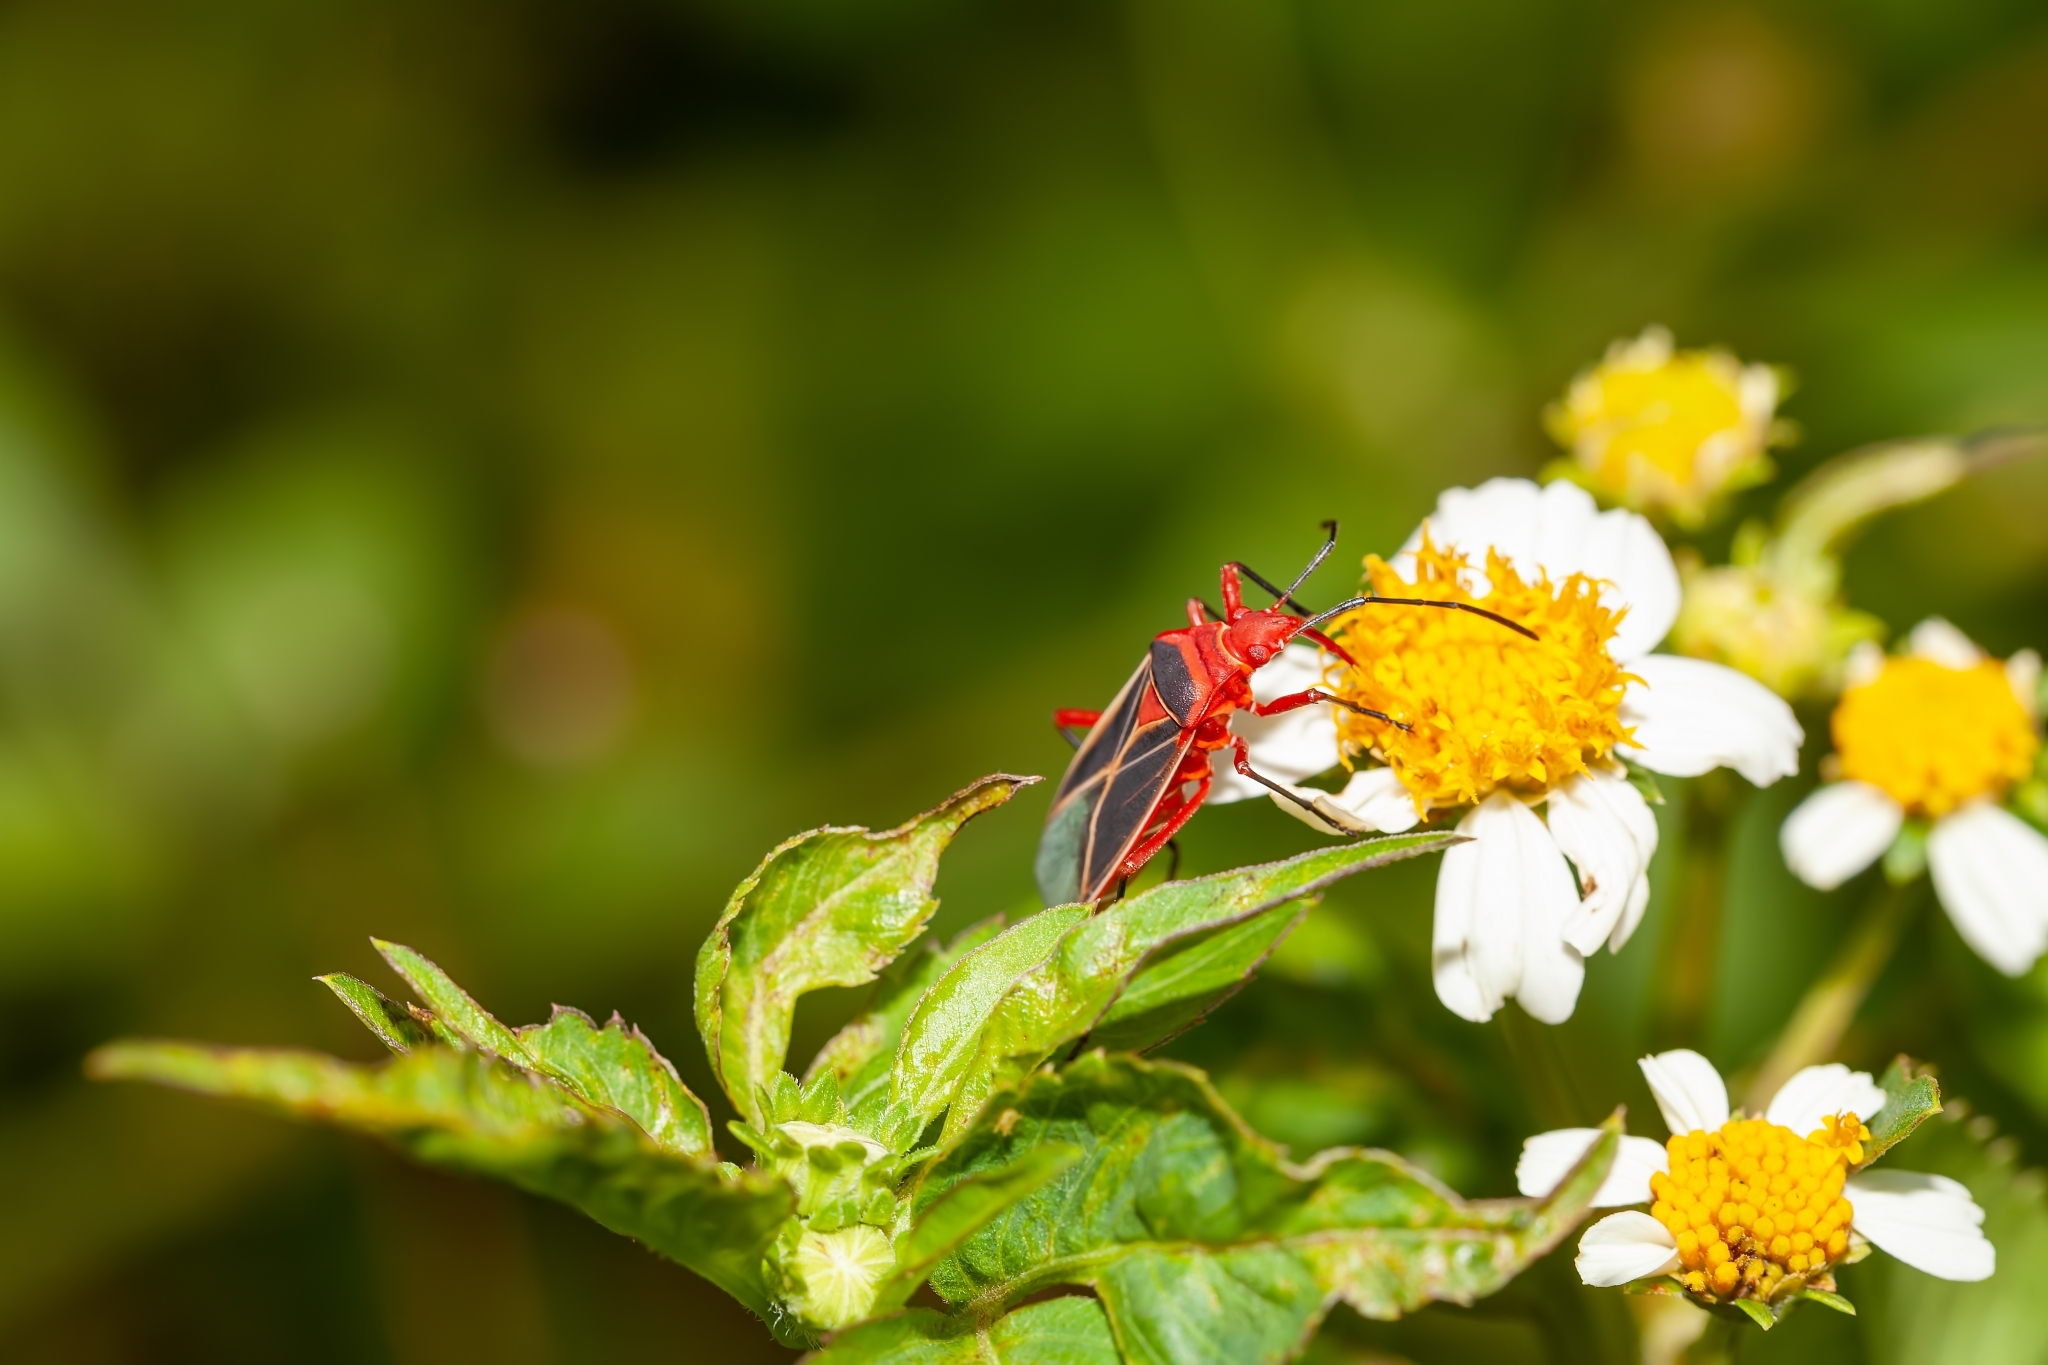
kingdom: Animalia
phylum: Arthropoda
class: Insecta
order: Hemiptera
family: Pyrrhocoridae
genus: Dysdercus
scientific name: Dysdercus suturellus
